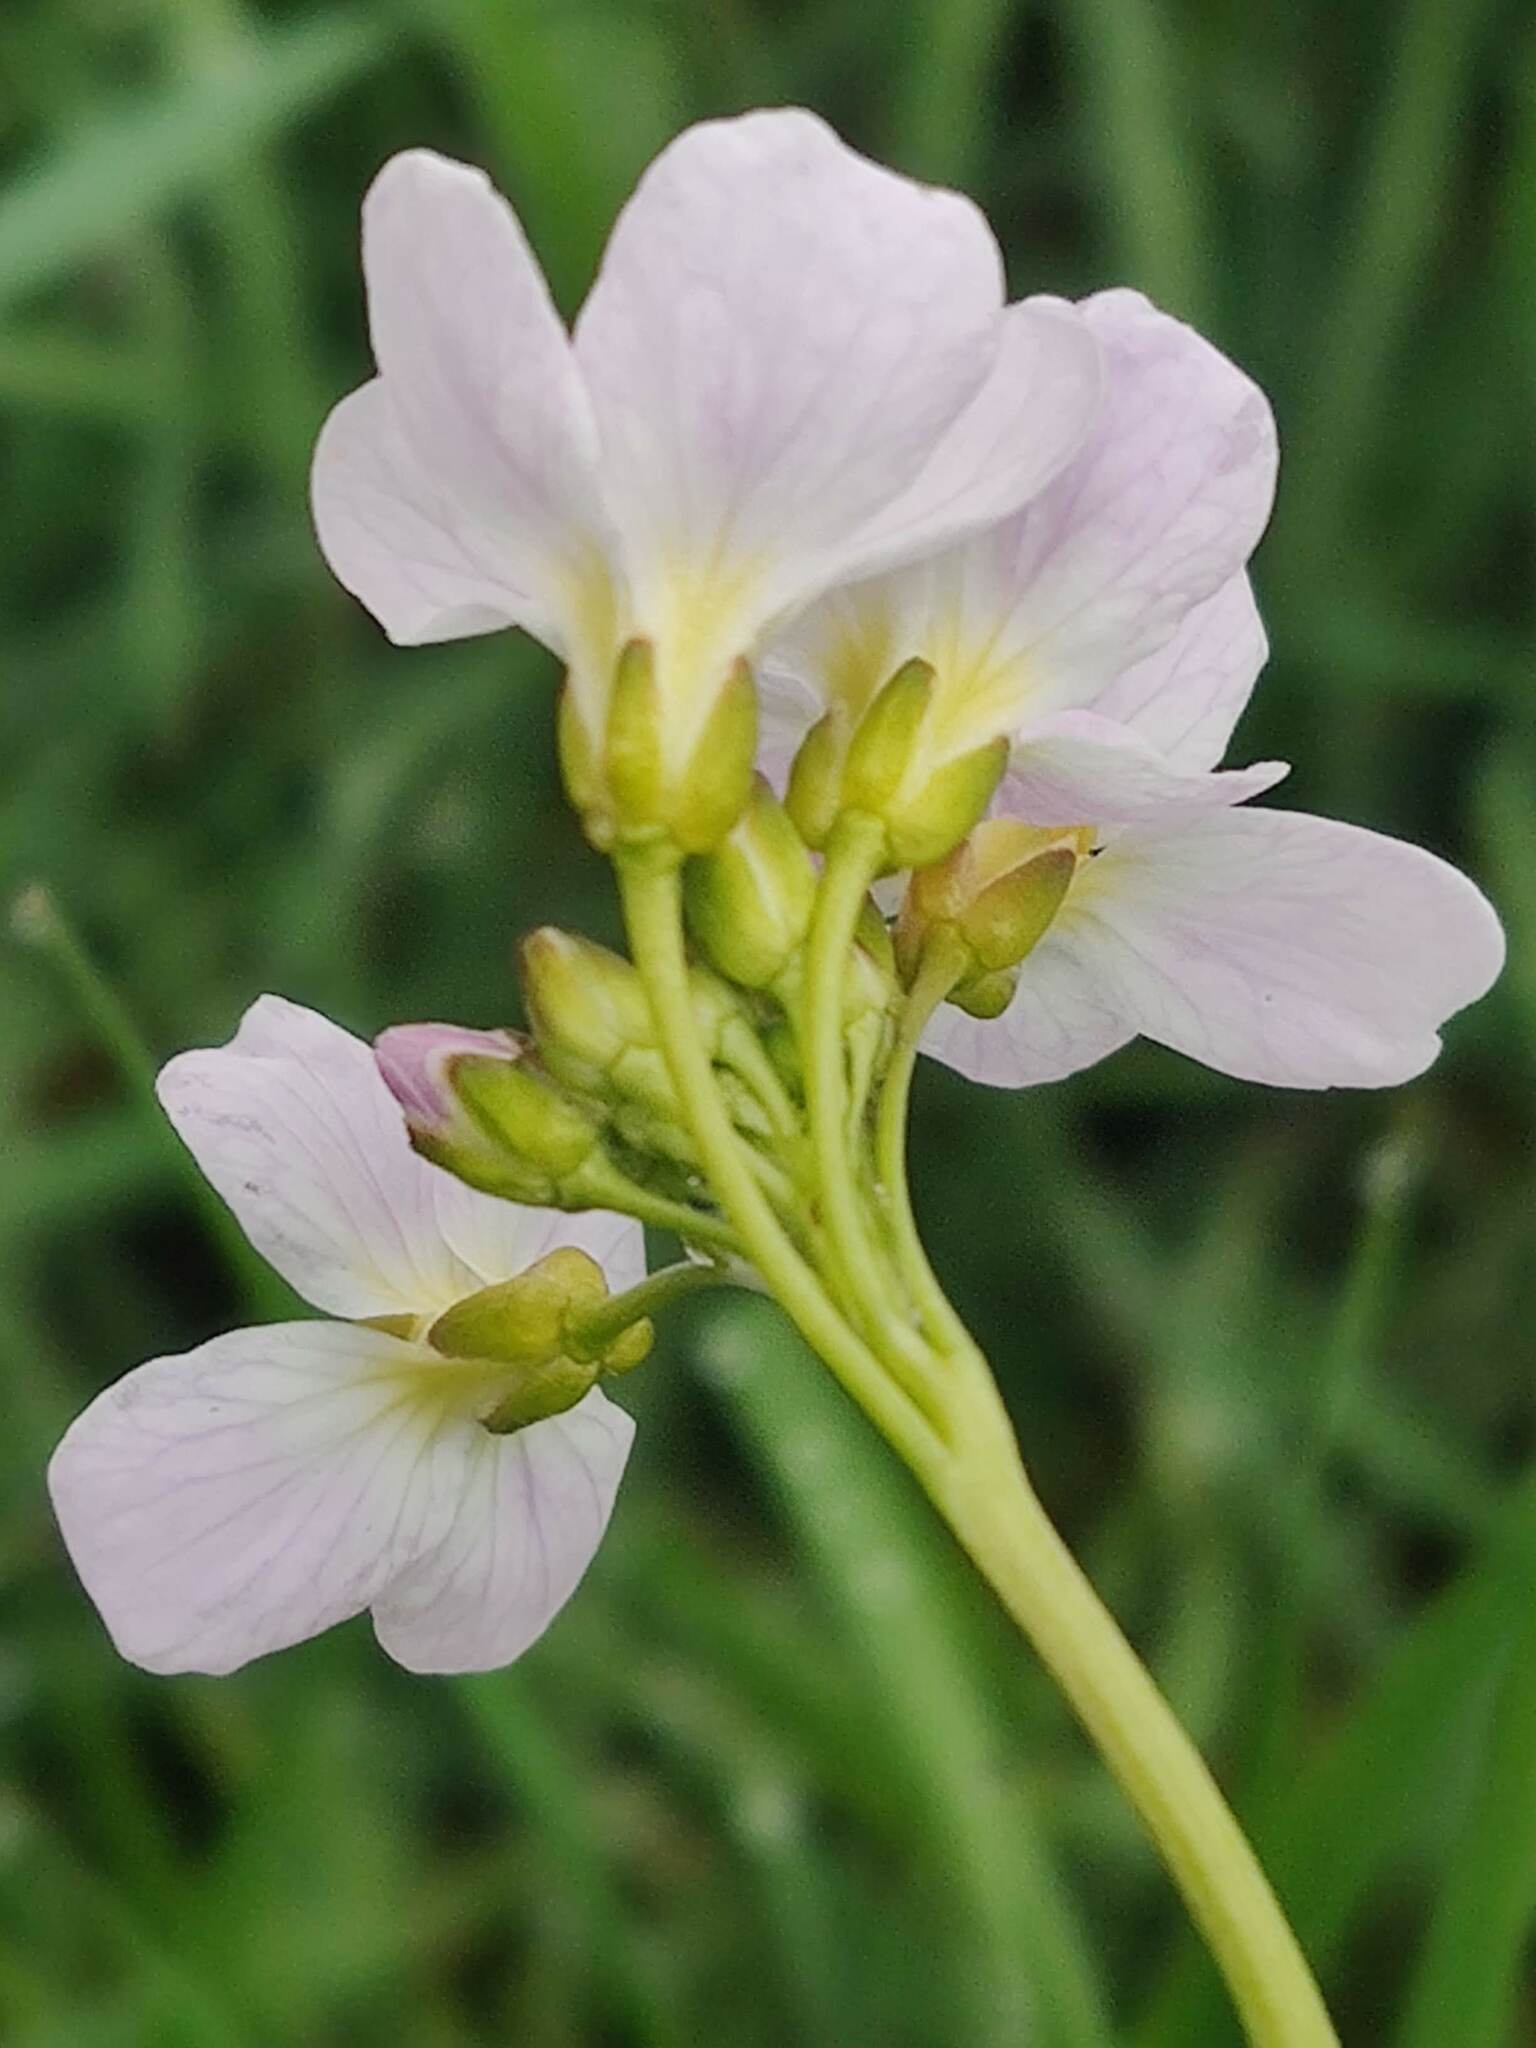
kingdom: Plantae
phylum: Tracheophyta
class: Magnoliopsida
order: Brassicales
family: Brassicaceae
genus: Cardamine
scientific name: Cardamine pratensis
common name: Cuckoo flower
